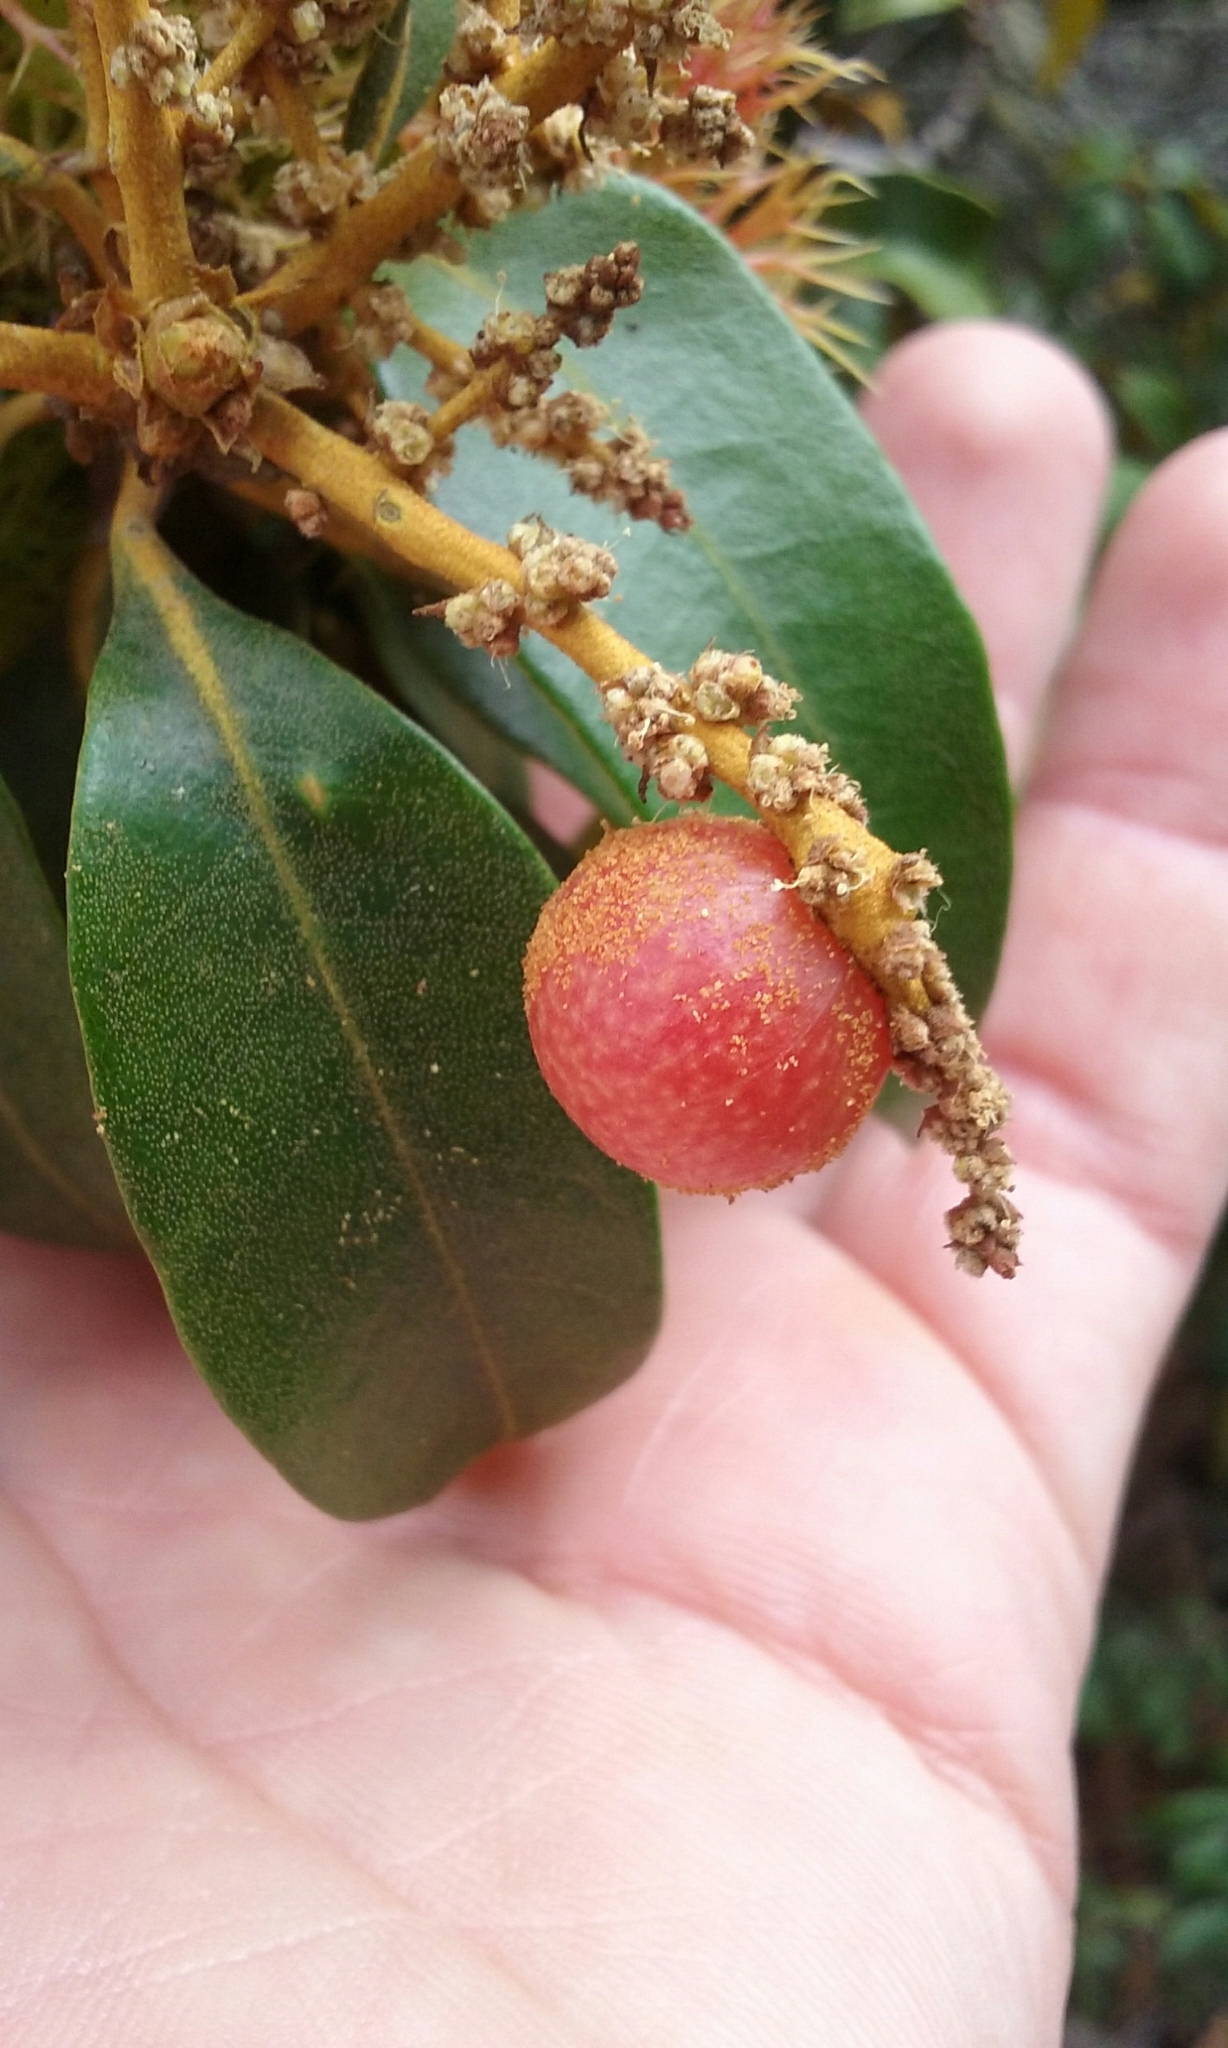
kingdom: Animalia
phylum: Arthropoda
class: Insecta
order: Hymenoptera
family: Cynipidae
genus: Synergus
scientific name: Synergus castanopsidis
